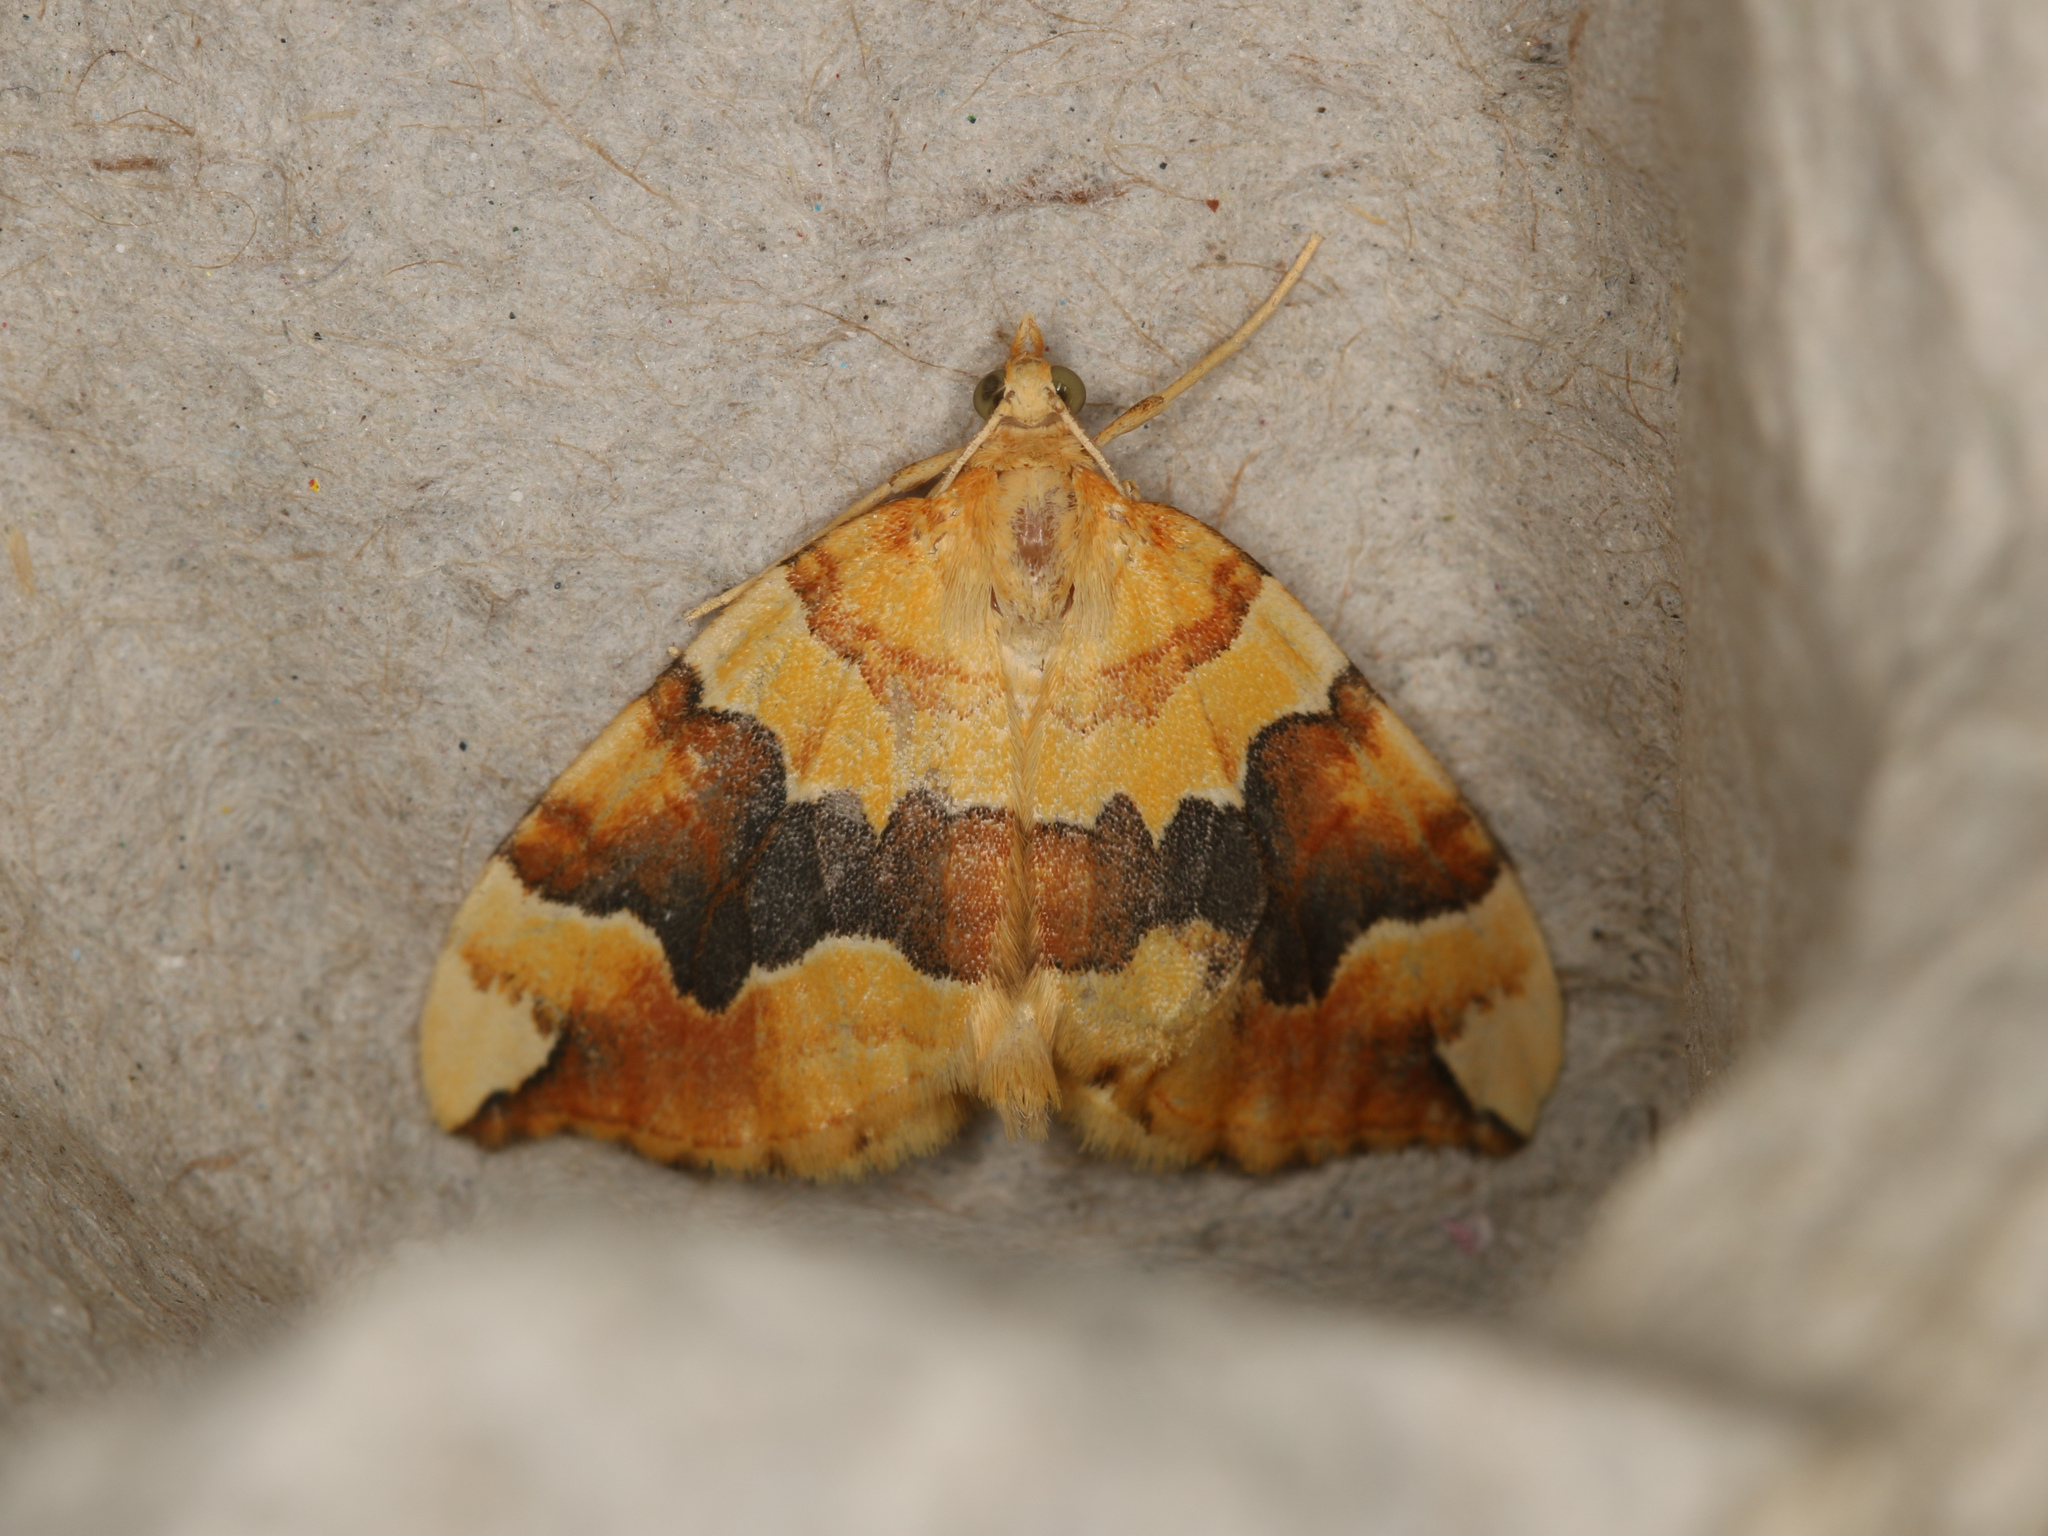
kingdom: Animalia
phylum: Arthropoda
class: Insecta
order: Lepidoptera
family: Geometridae
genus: Cidaria
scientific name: Cidaria fulvata
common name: Barred yellow
